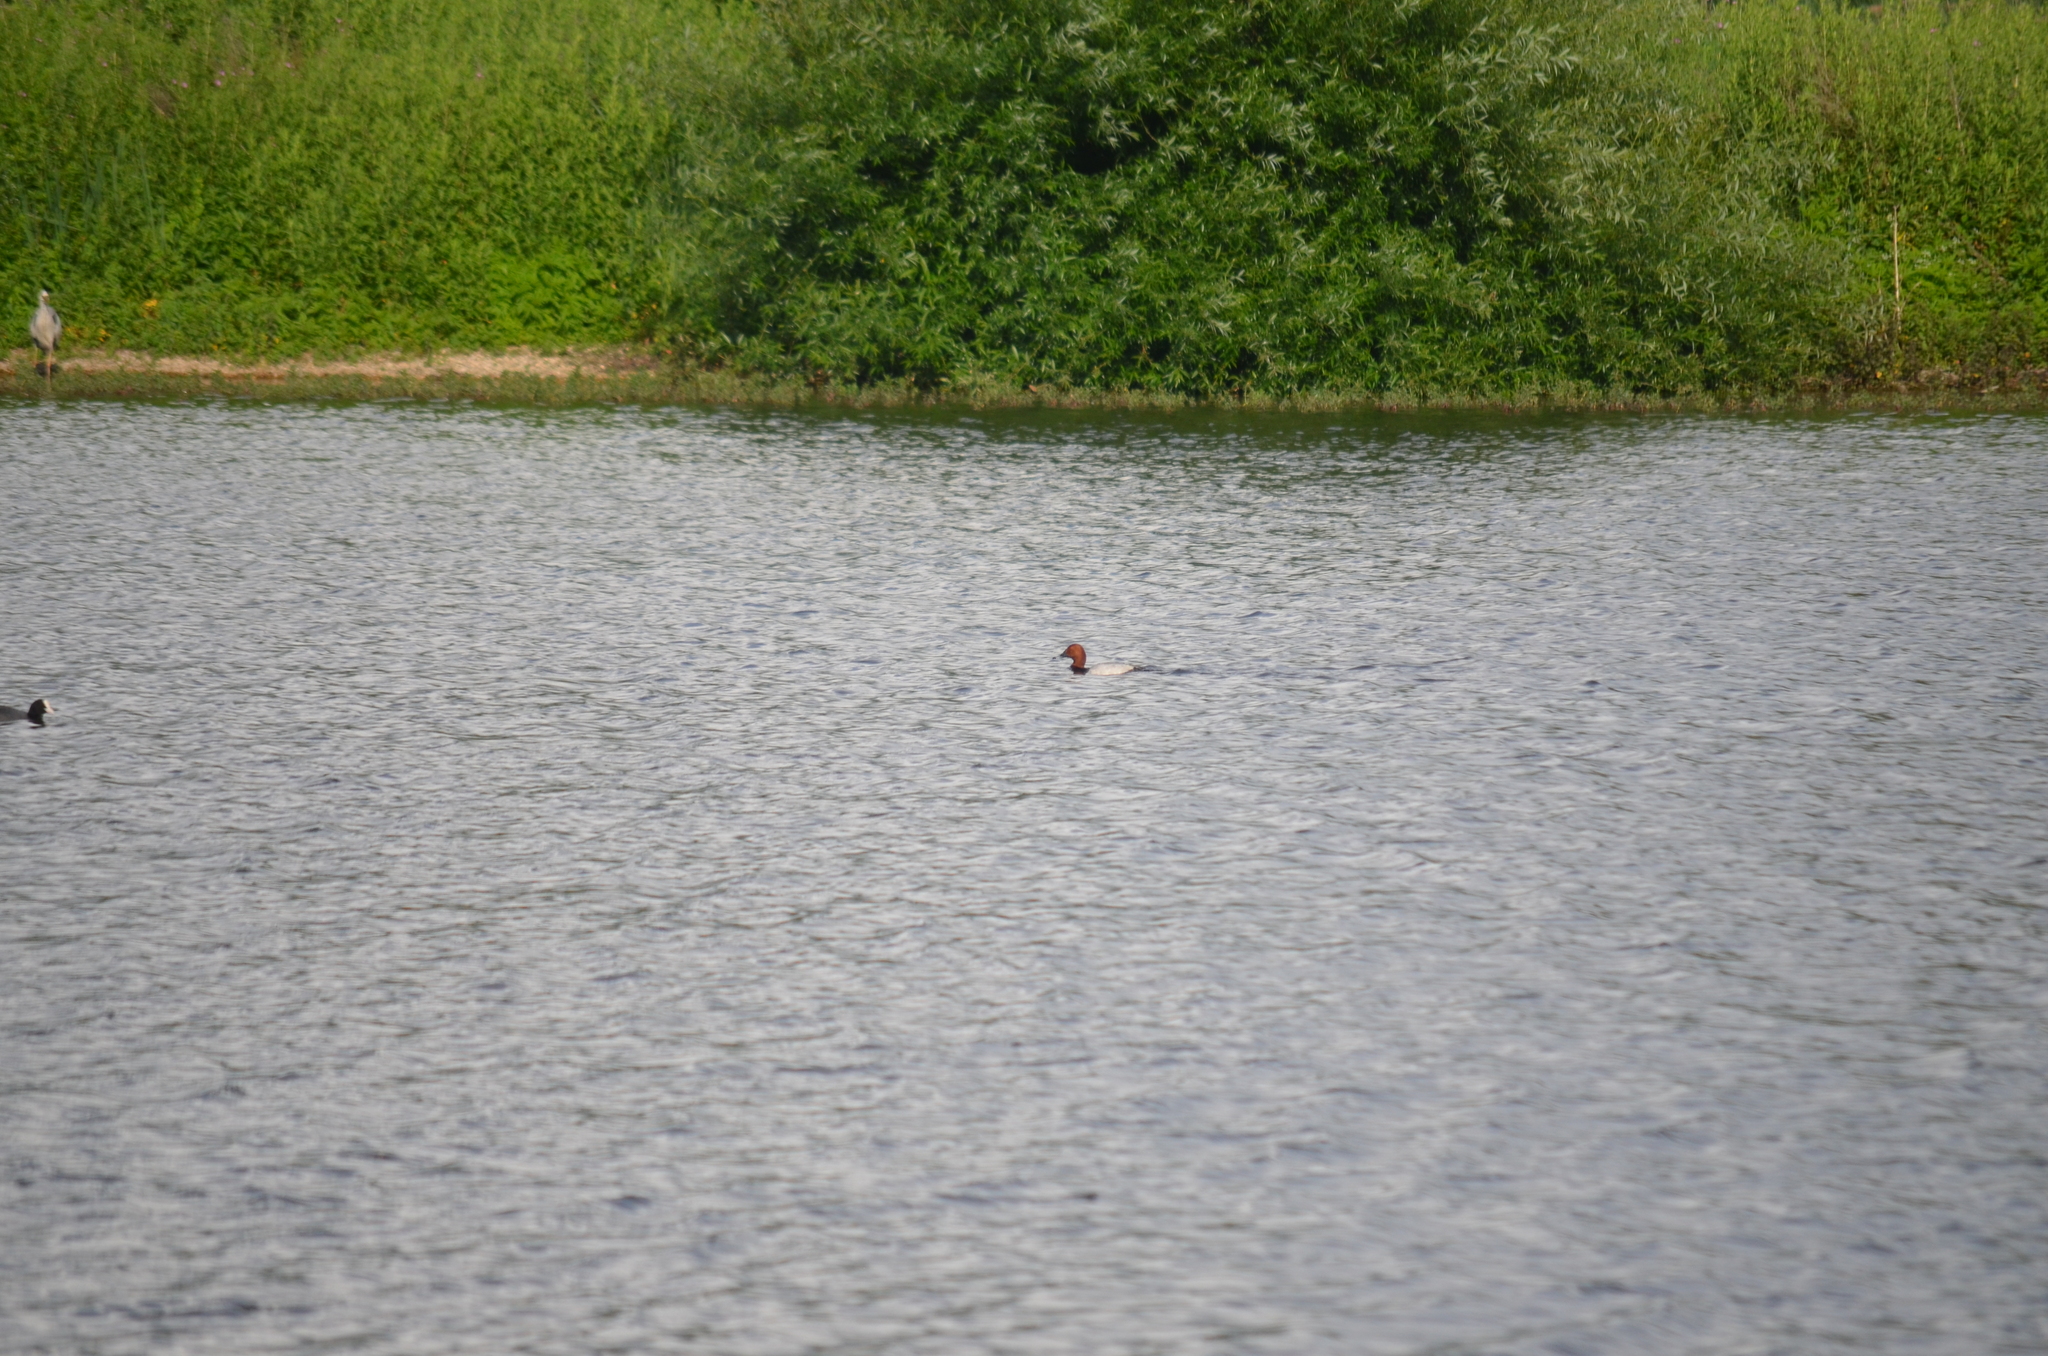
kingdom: Animalia
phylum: Chordata
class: Aves
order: Anseriformes
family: Anatidae
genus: Aythya
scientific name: Aythya ferina
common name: Common pochard
